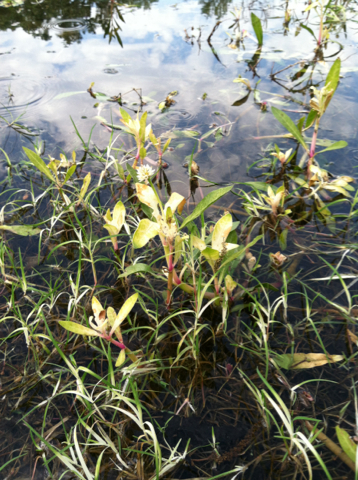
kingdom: Plantae
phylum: Tracheophyta
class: Magnoliopsida
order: Caryophyllales
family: Amaranthaceae
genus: Alternanthera
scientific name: Alternanthera philoxeroides
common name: Alligatorweed
